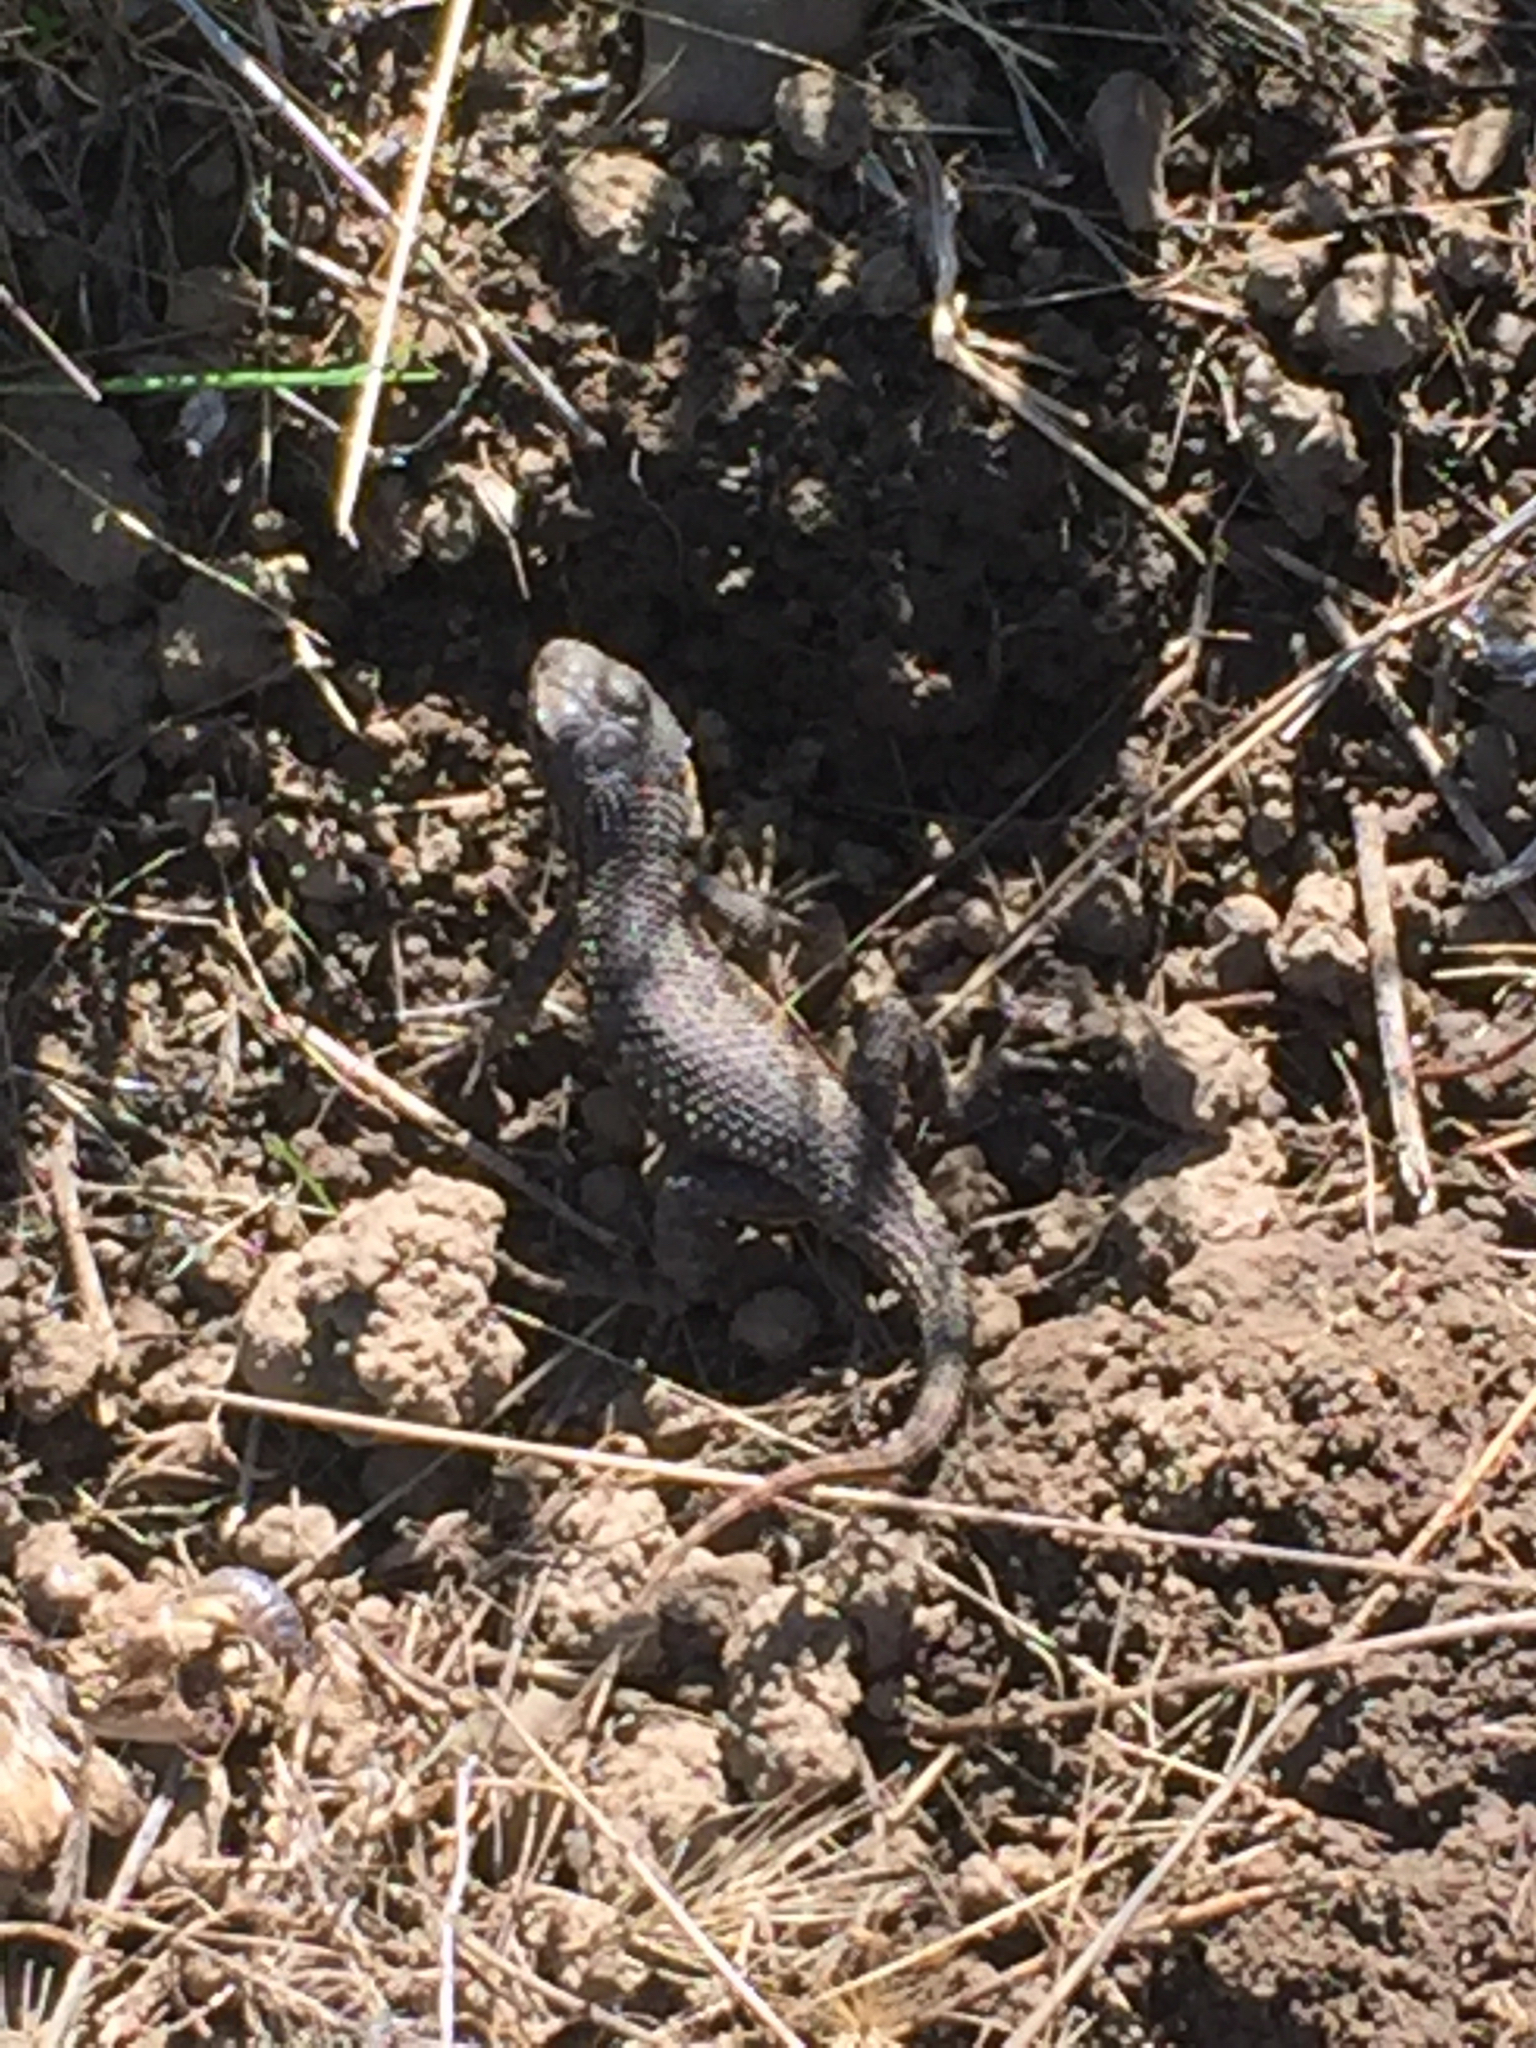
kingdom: Animalia
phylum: Chordata
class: Squamata
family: Phrynosomatidae
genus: Sceloporus
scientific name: Sceloporus occidentalis
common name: Western fence lizard
